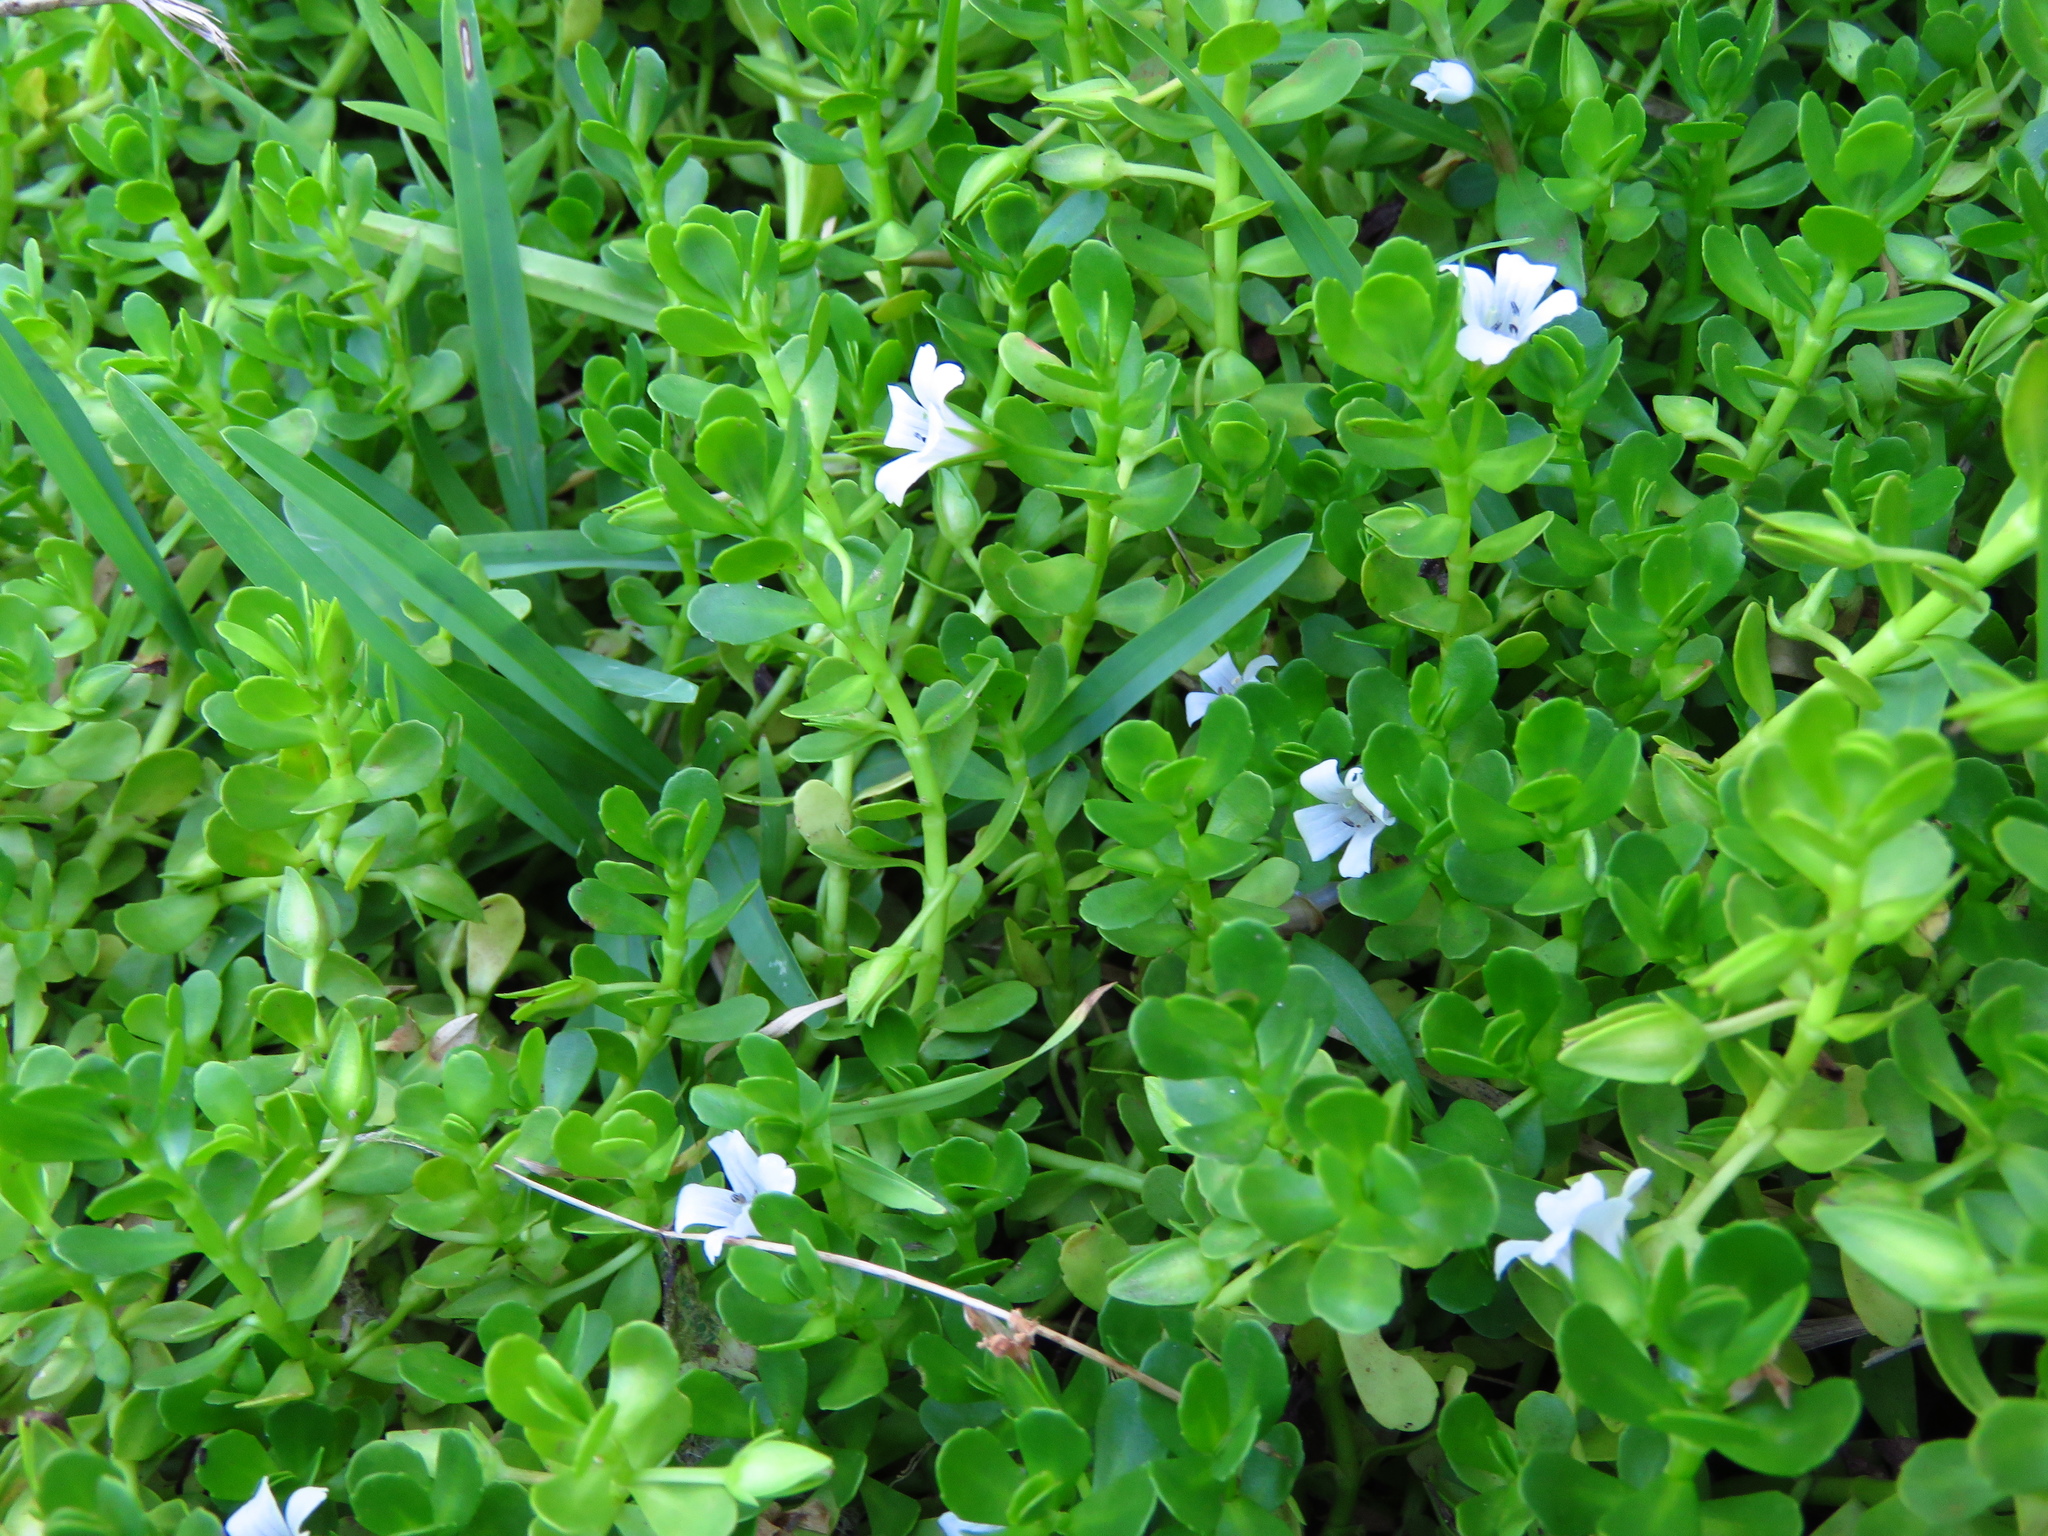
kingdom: Plantae
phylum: Tracheophyta
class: Magnoliopsida
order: Lamiales
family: Plantaginaceae
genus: Bacopa
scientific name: Bacopa monnieri
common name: Indian-pennywort
